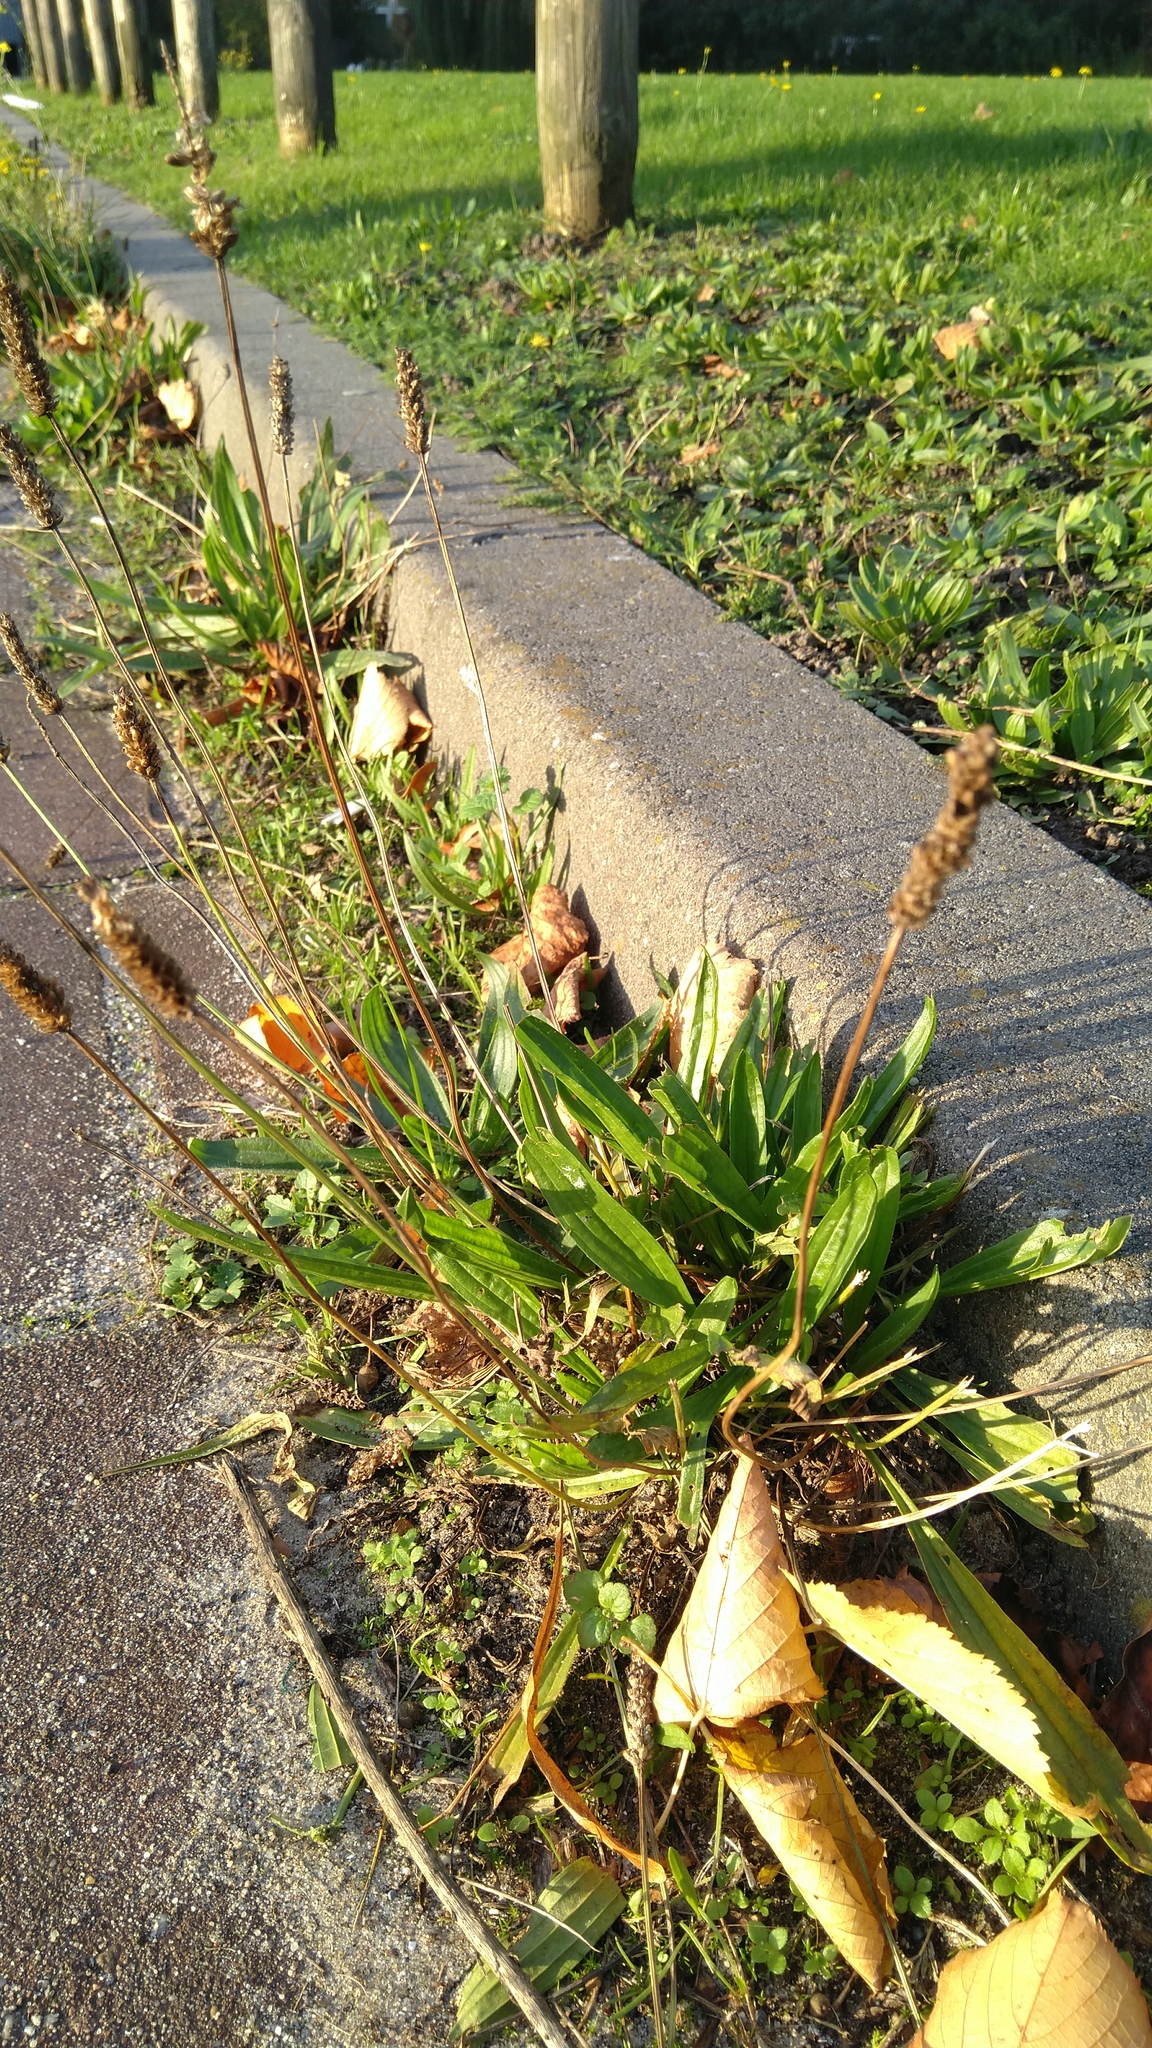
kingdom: Plantae
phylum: Tracheophyta
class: Magnoliopsida
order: Lamiales
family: Plantaginaceae
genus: Plantago
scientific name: Plantago lanceolata
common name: Ribwort plantain
